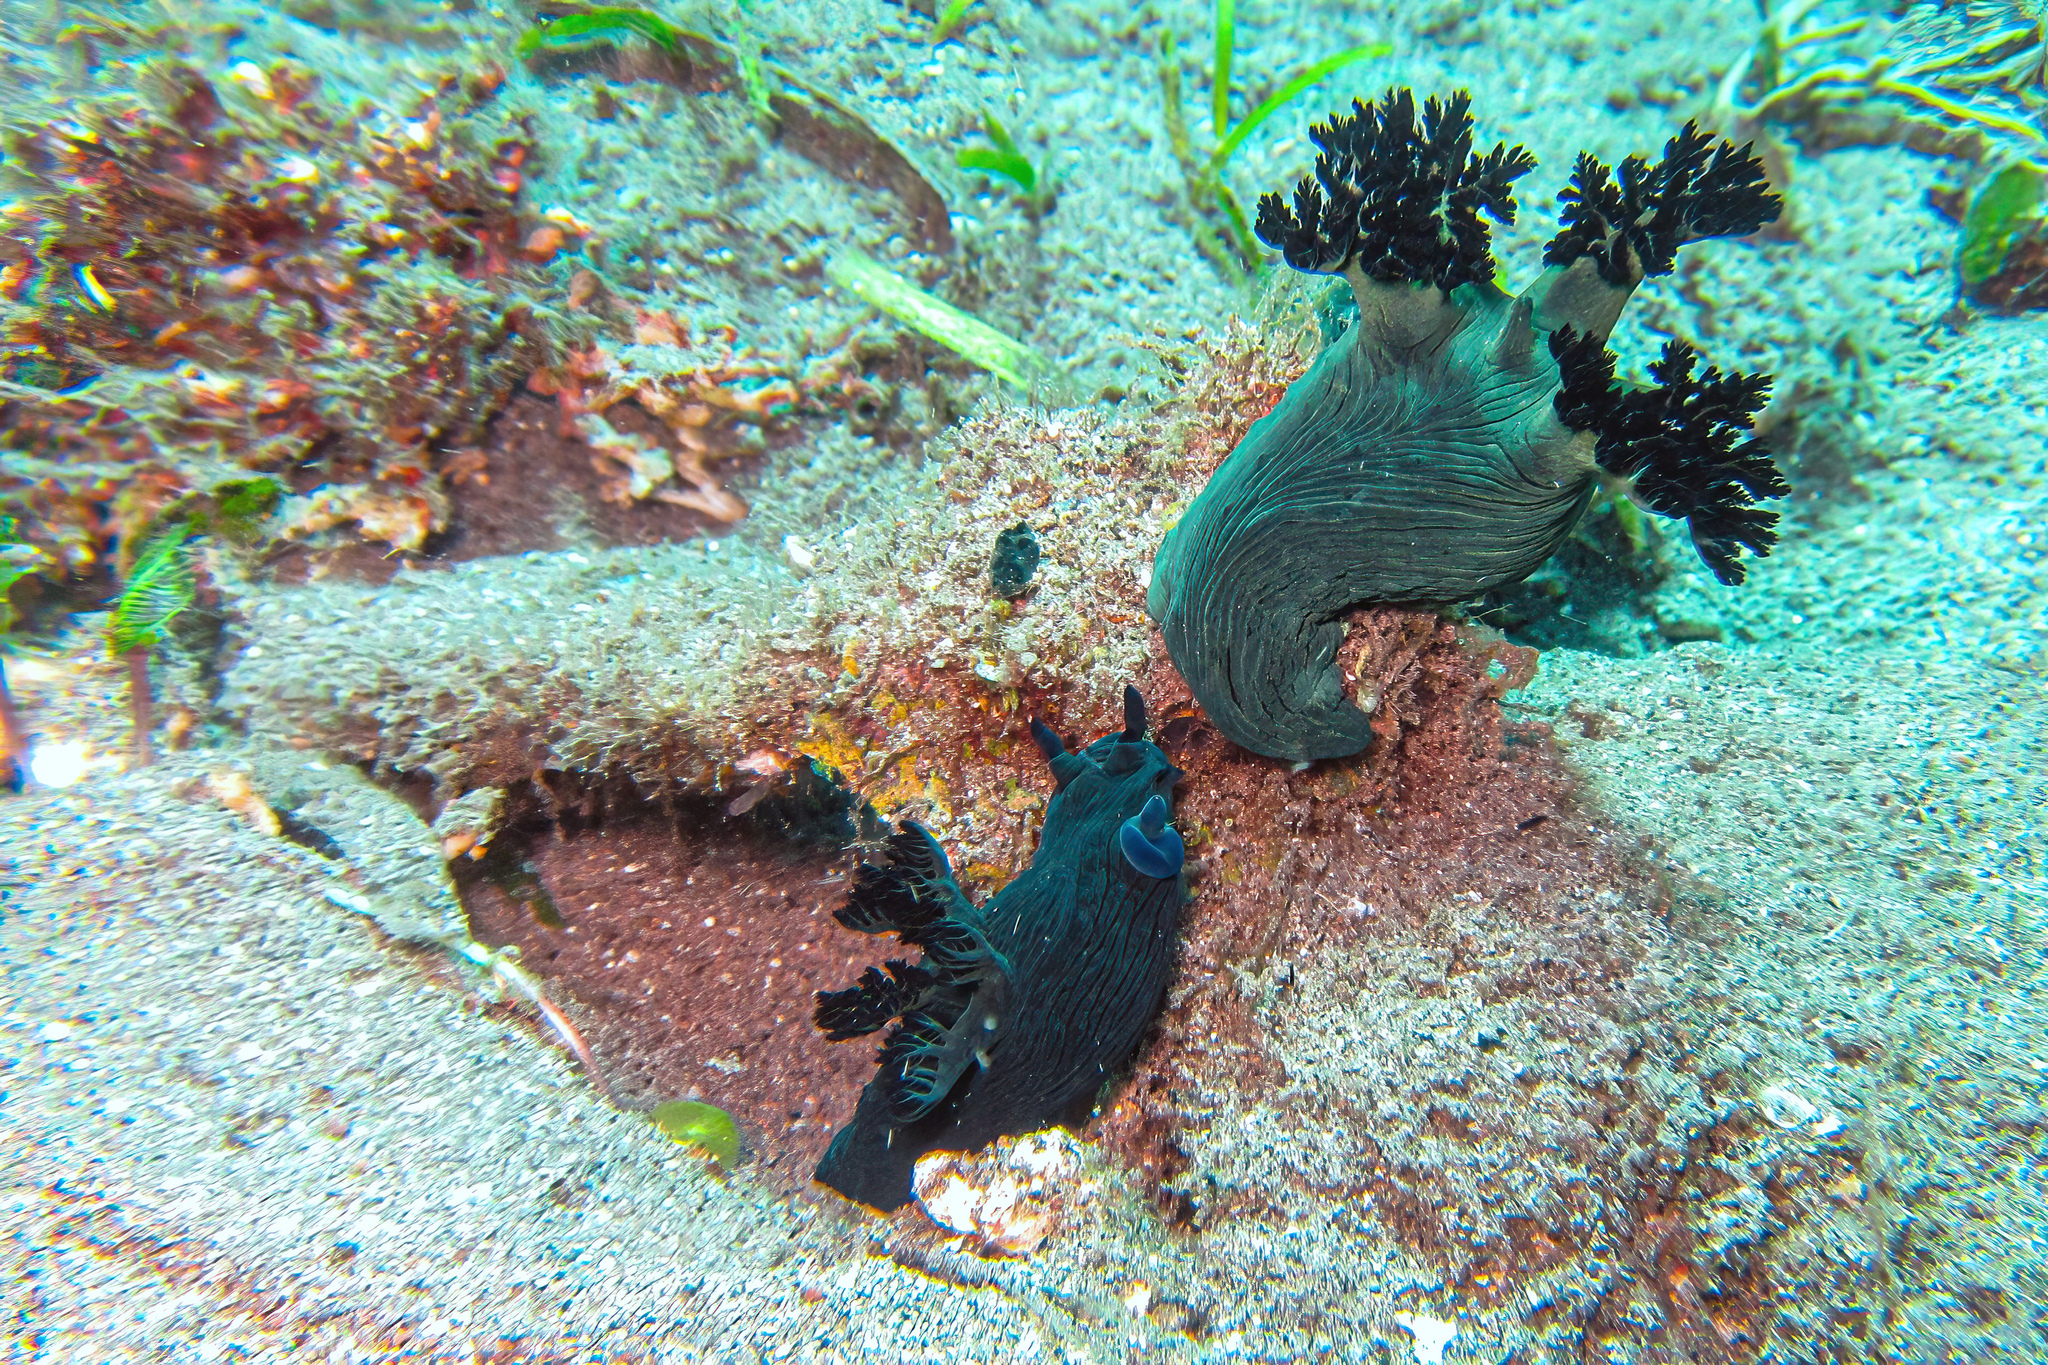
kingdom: Animalia
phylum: Mollusca
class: Gastropoda
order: Nudibranchia
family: Polyceridae
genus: Nembrotha
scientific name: Nembrotha milleri
